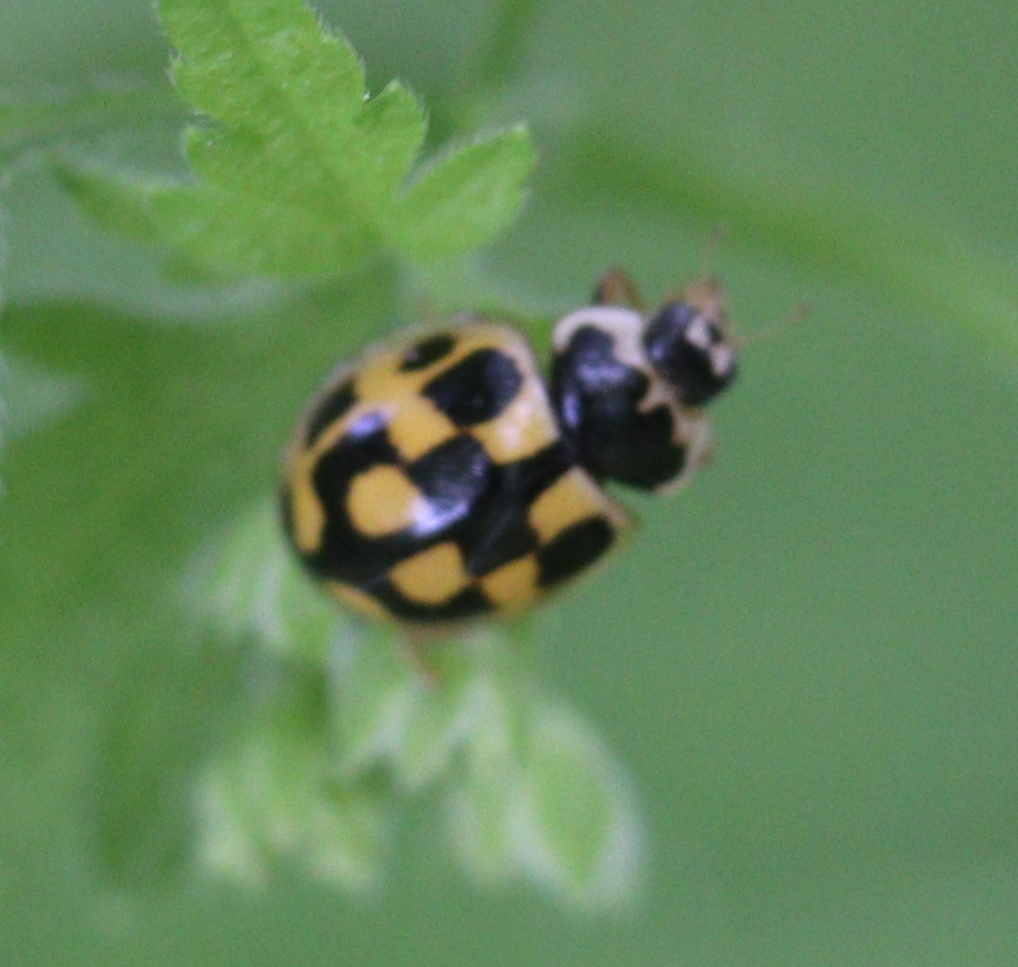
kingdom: Animalia
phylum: Arthropoda
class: Insecta
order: Coleoptera
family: Coccinellidae
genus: Propylaea
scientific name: Propylaea quatuordecimpunctata
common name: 14-spotted ladybird beetle
